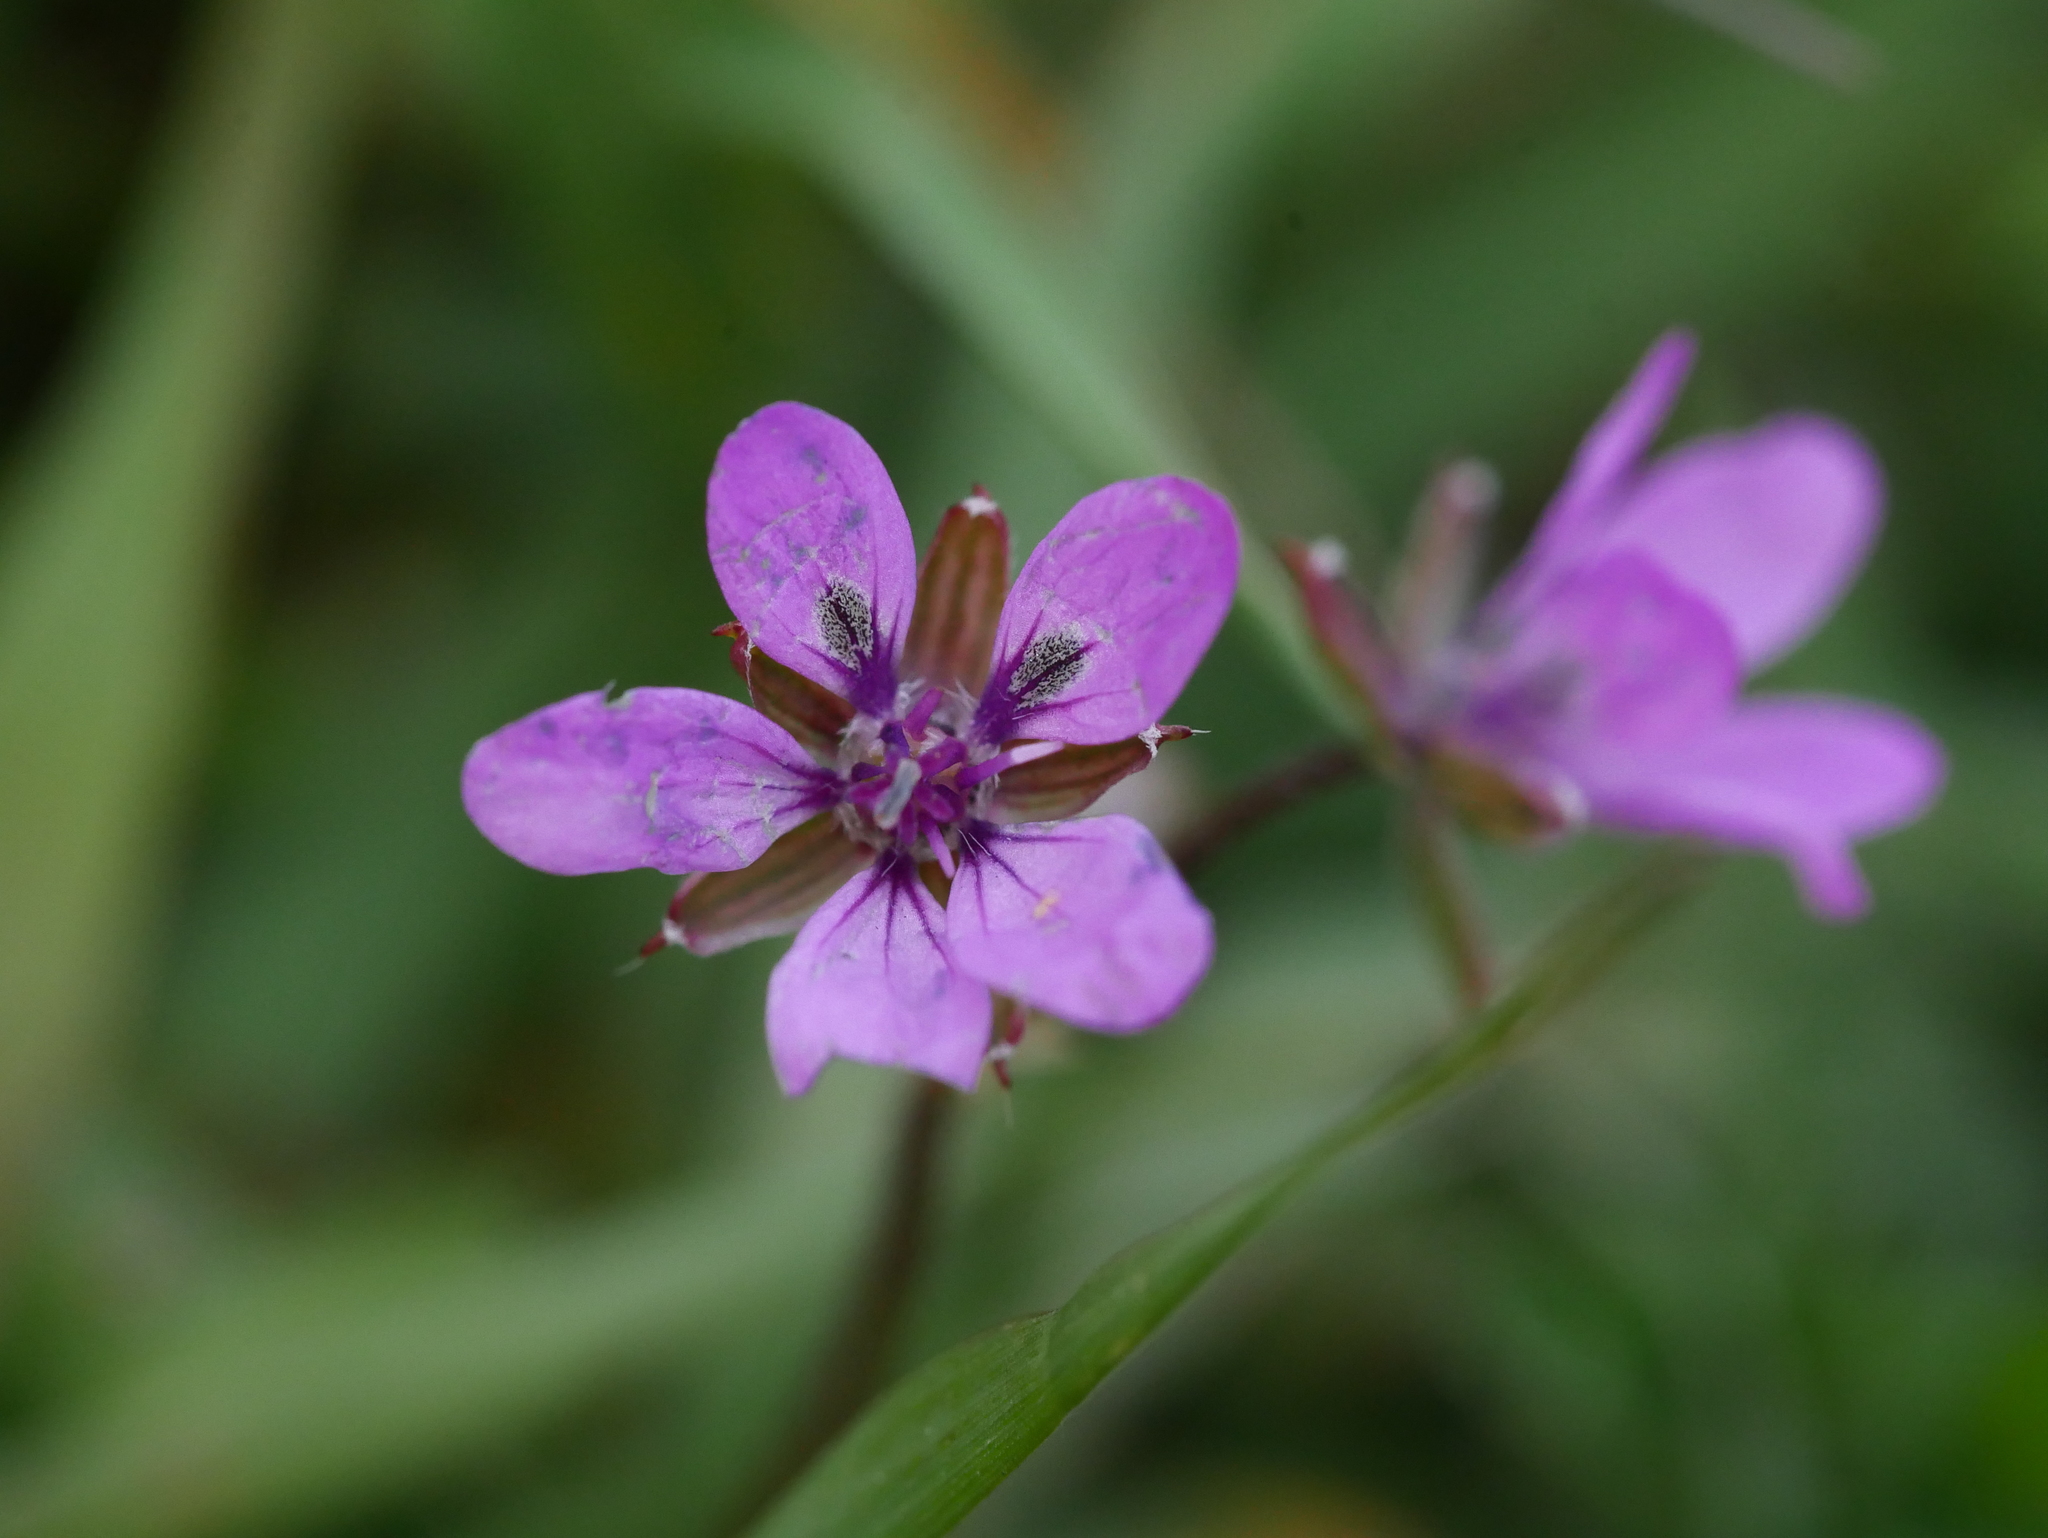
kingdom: Plantae
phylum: Tracheophyta
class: Magnoliopsida
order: Geraniales
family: Geraniaceae
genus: Erodium
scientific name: Erodium cicutarium
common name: Common stork's-bill
